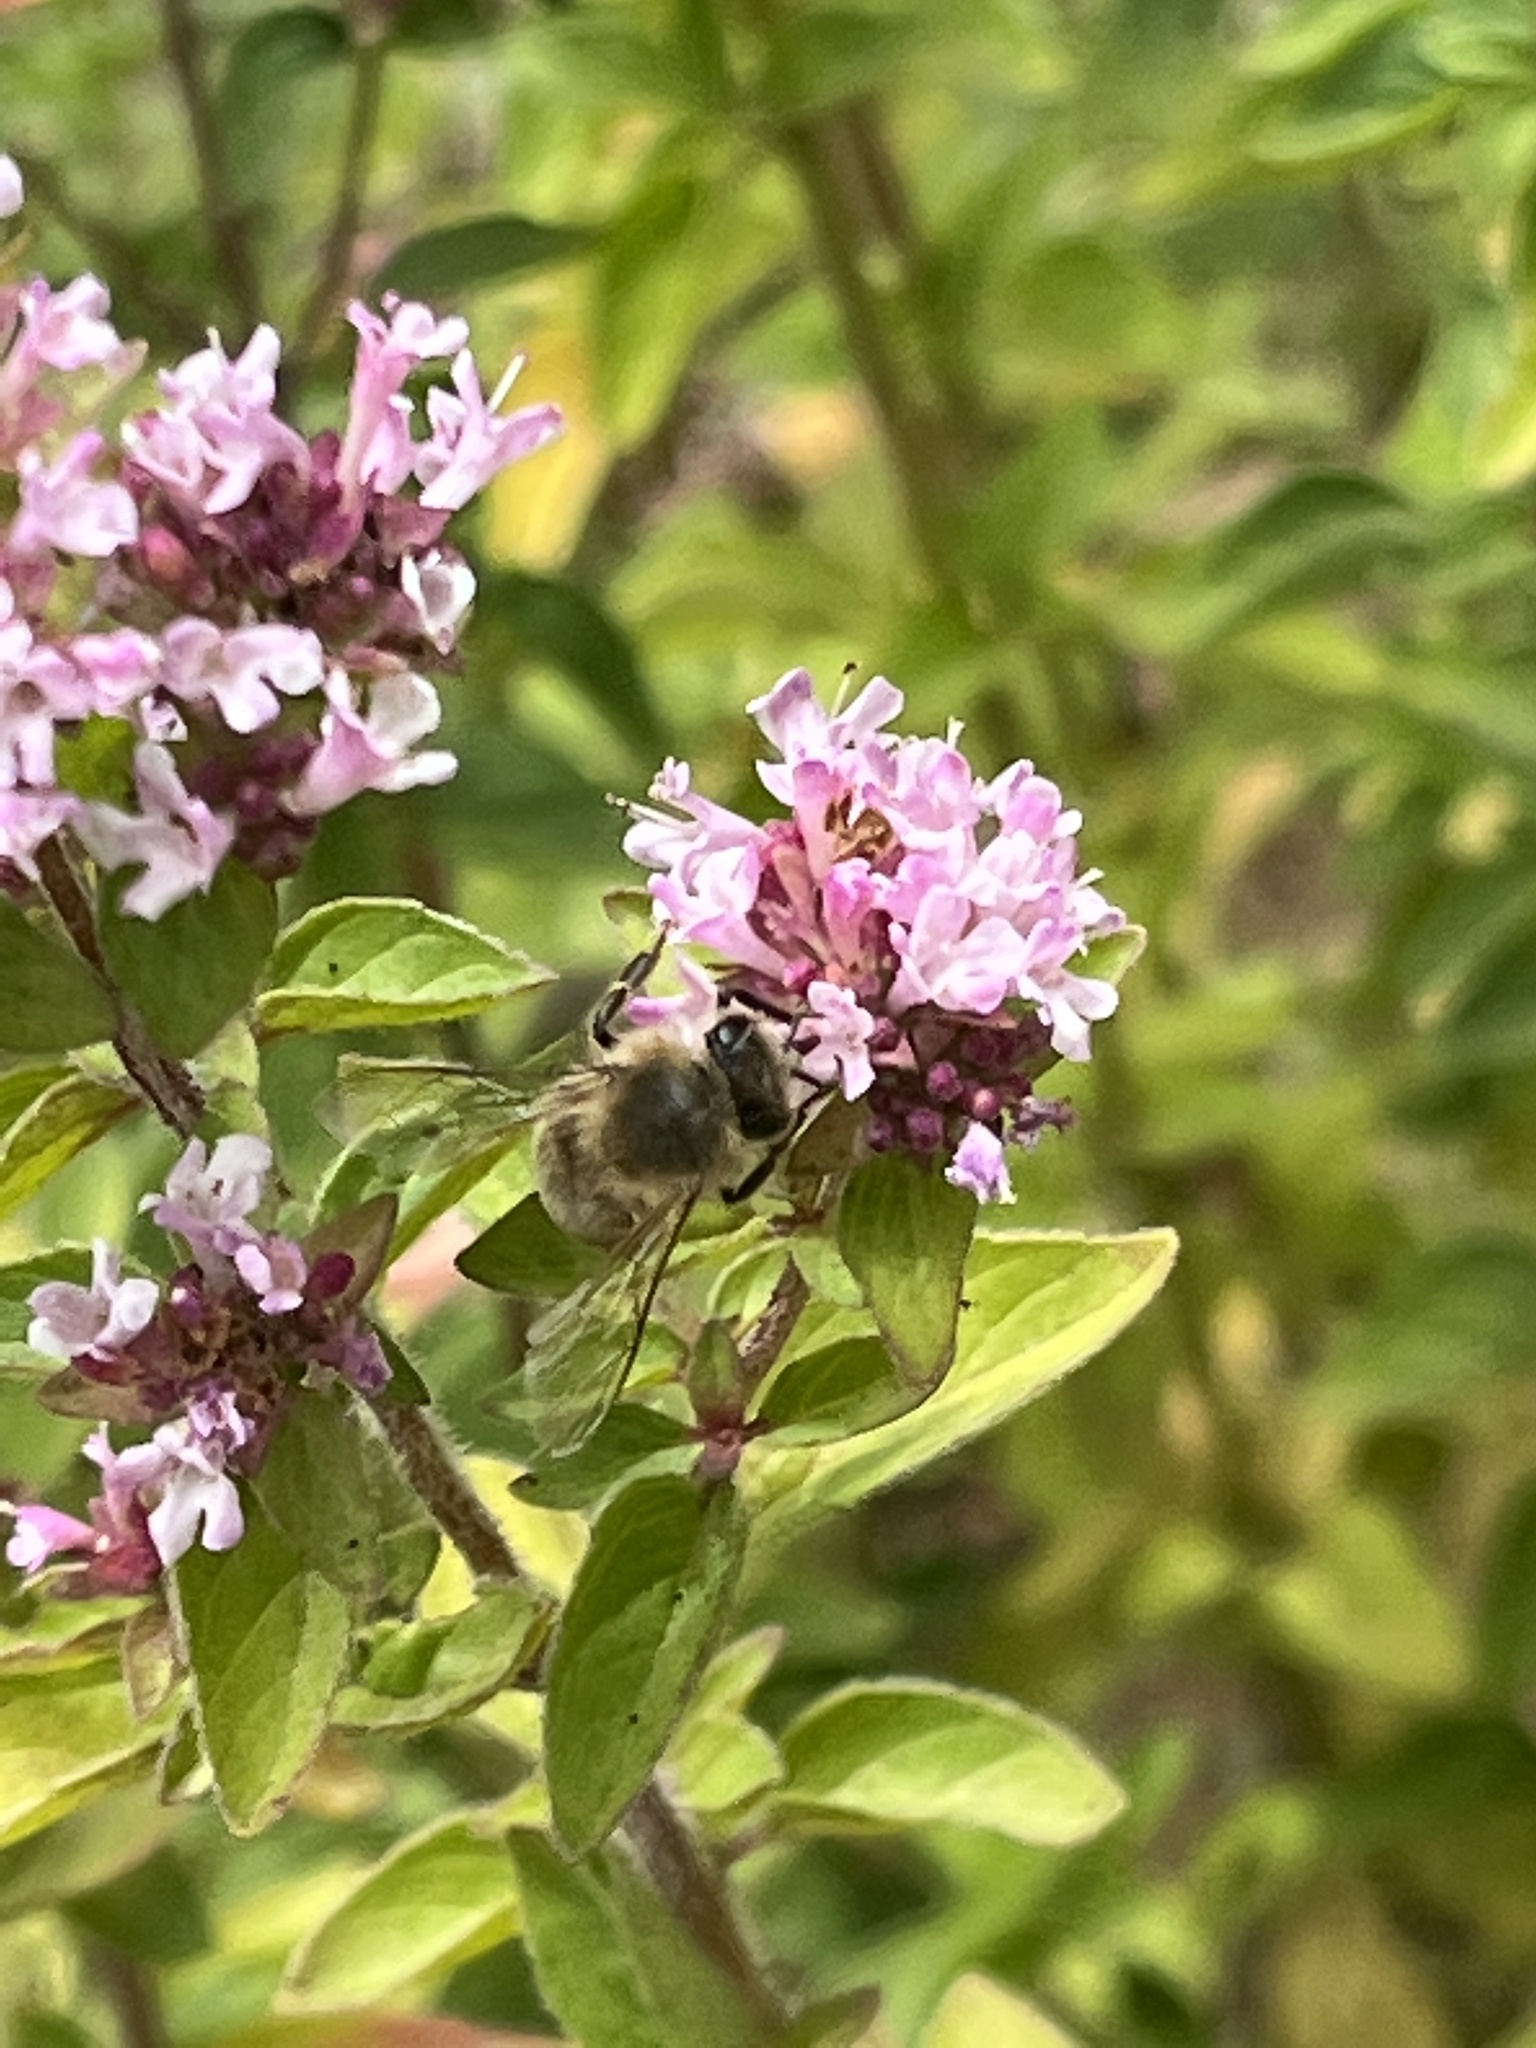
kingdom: Animalia
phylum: Arthropoda
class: Insecta
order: Hymenoptera
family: Apidae
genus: Apis
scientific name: Apis mellifera
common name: Honey bee
